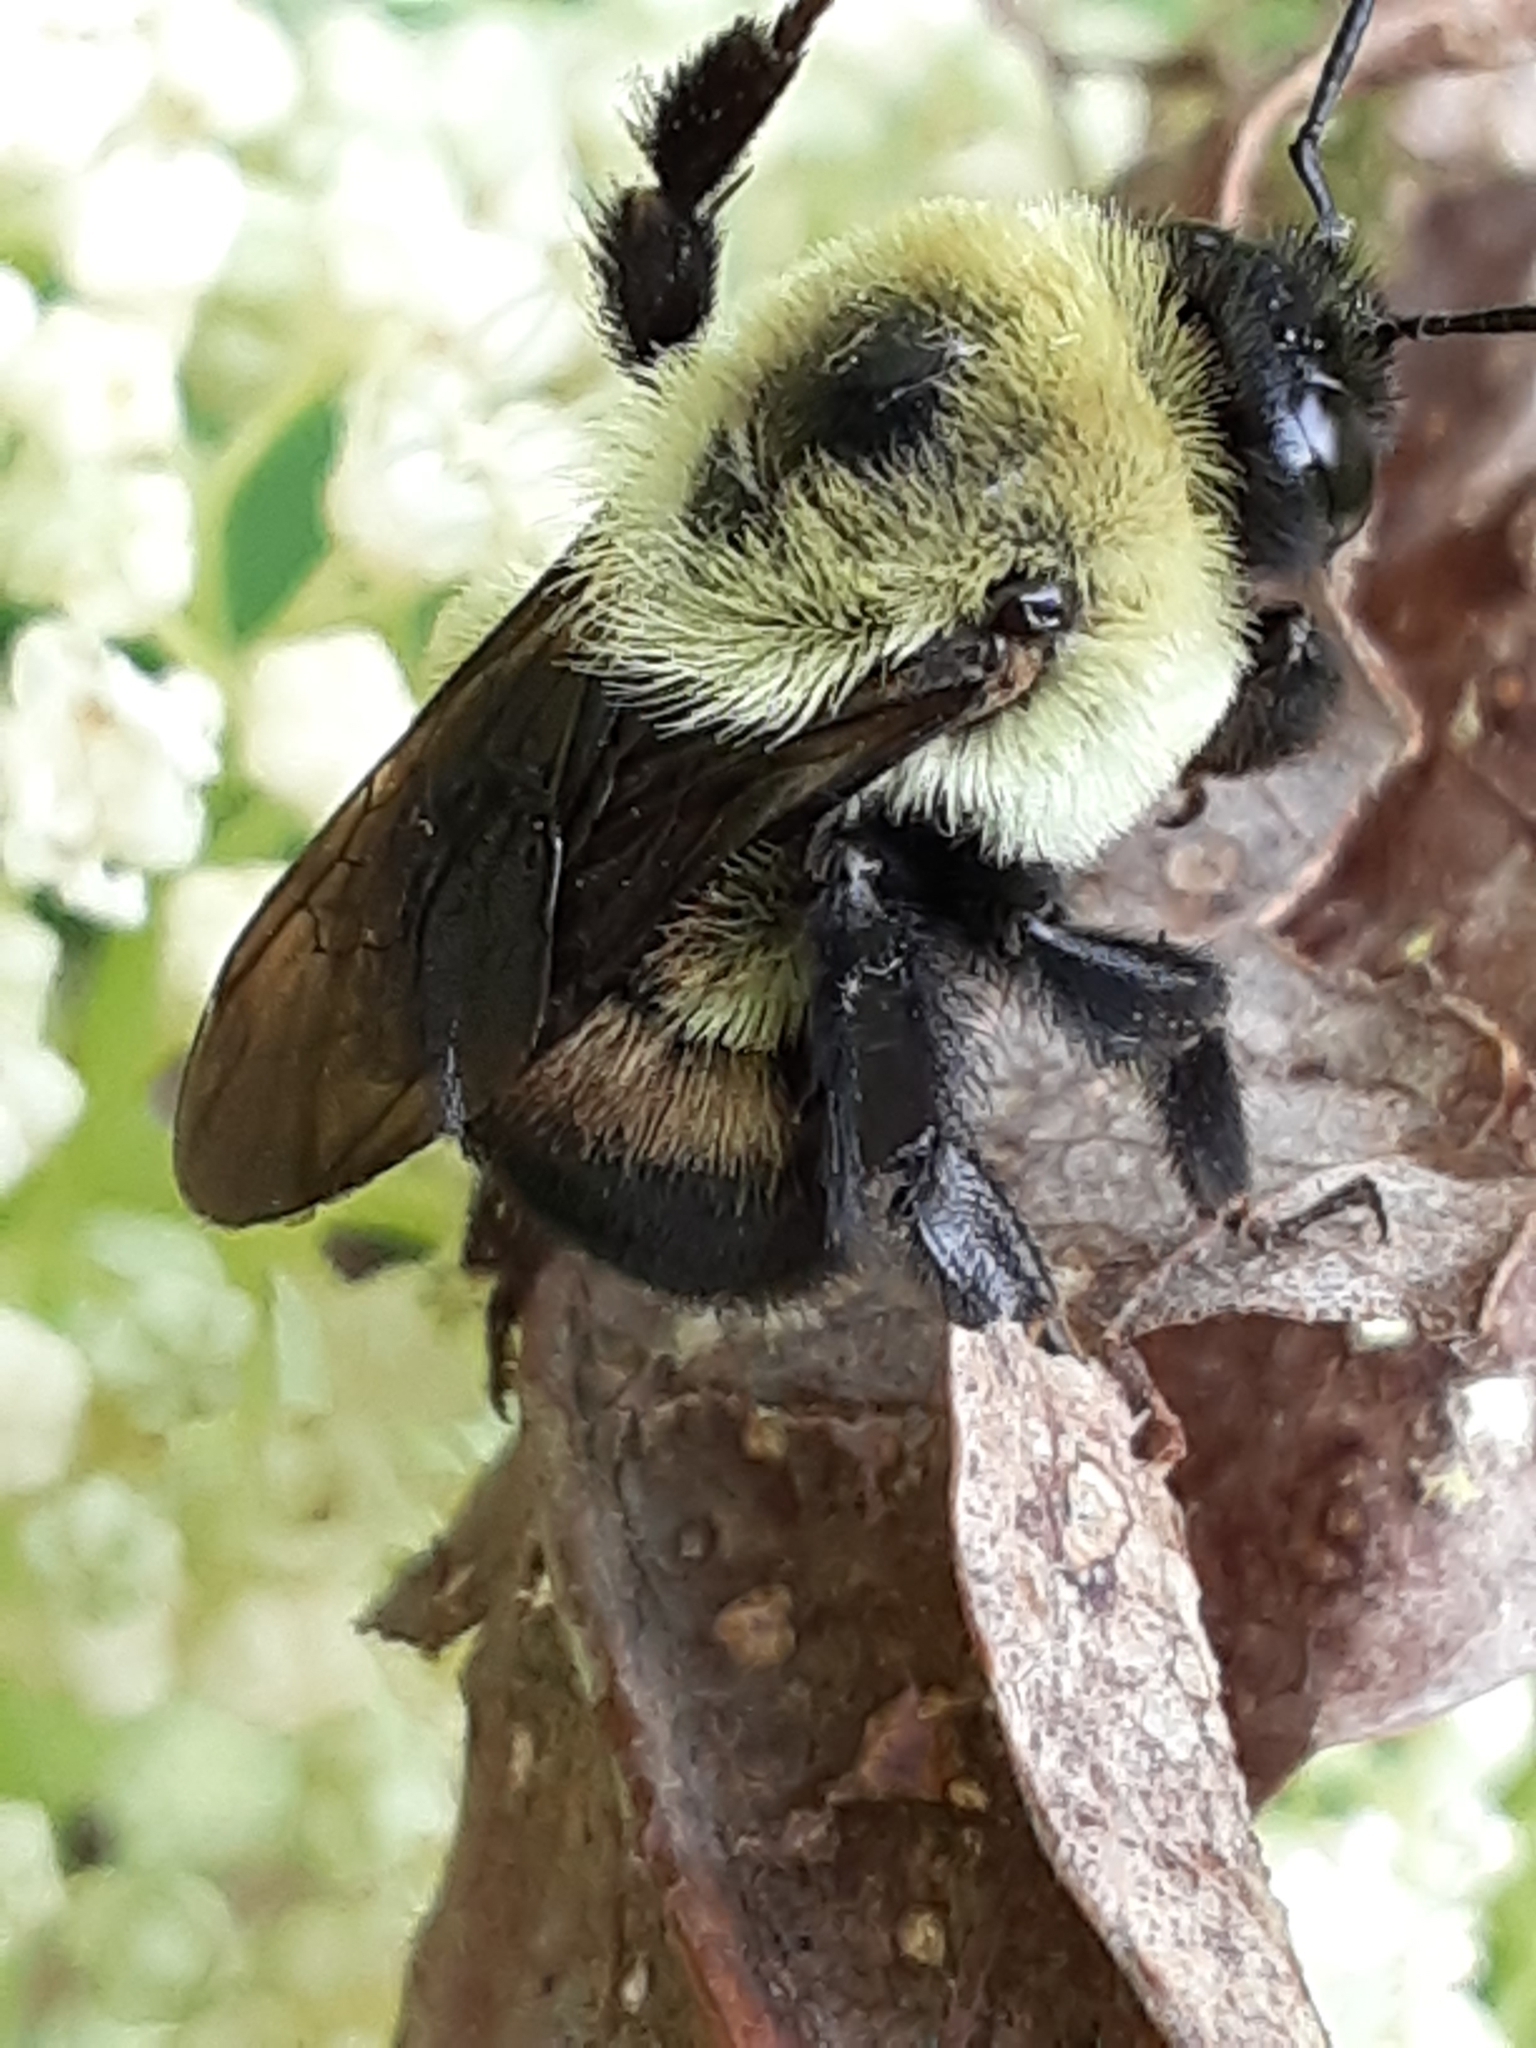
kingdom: Animalia
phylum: Arthropoda
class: Insecta
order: Hymenoptera
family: Apidae
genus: Bombus
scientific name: Bombus griseocollis
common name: Brown-belted bumble bee
